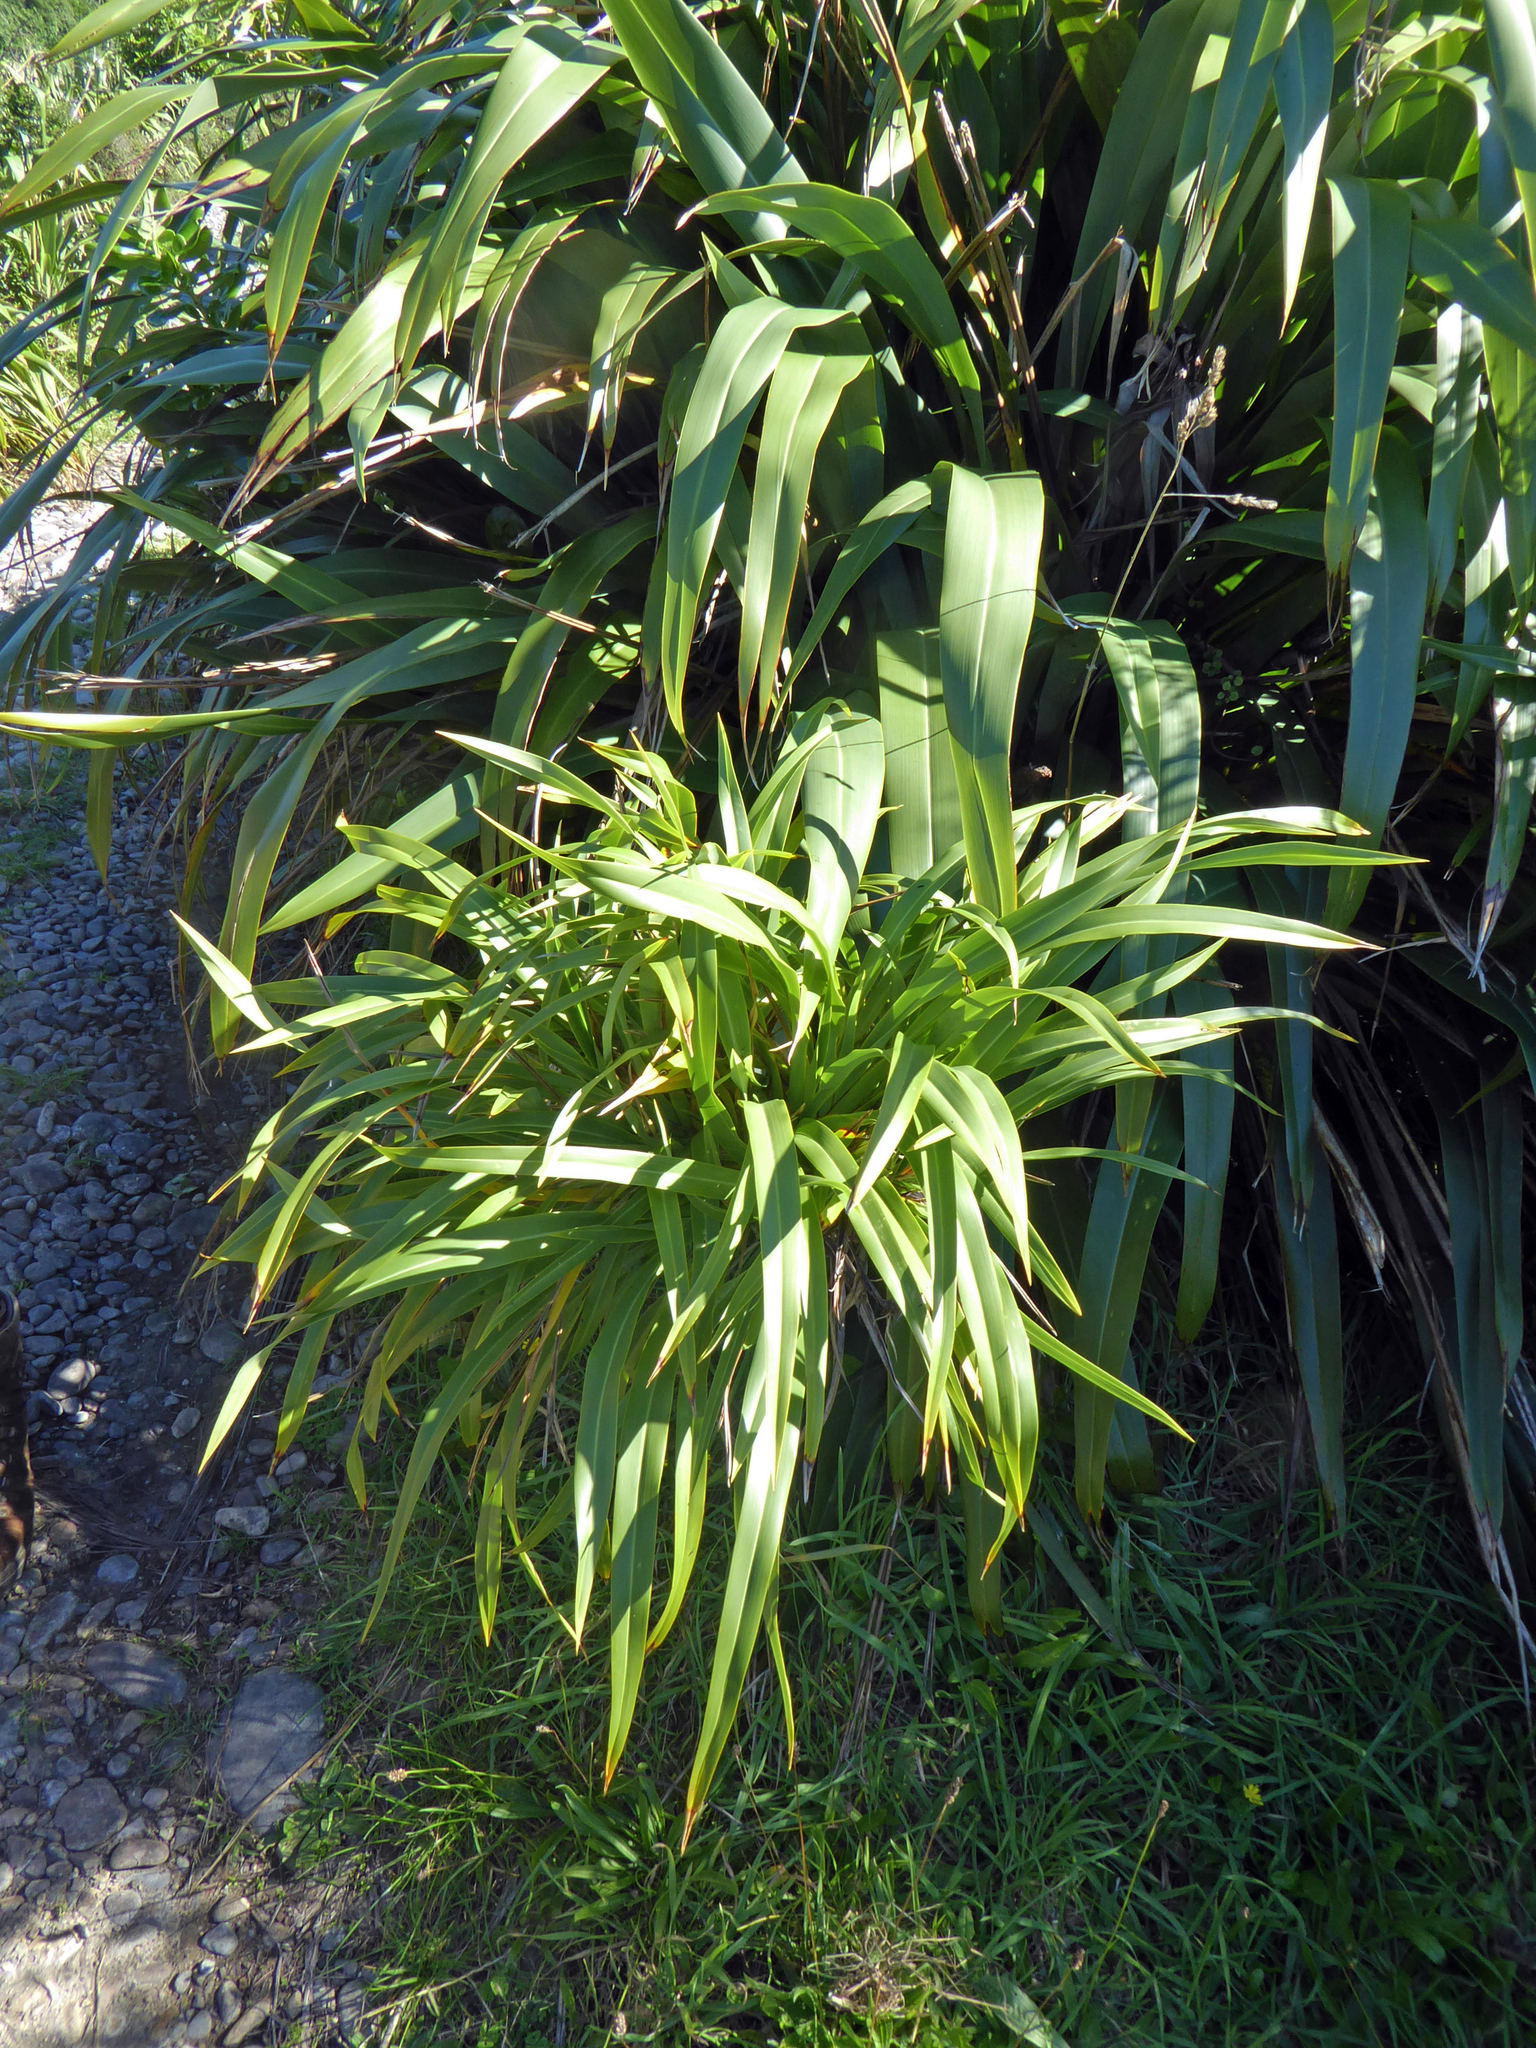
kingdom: Plantae
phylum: Tracheophyta
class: Liliopsida
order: Asparagales
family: Asphodelaceae
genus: Phormium
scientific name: Phormium colensoi
